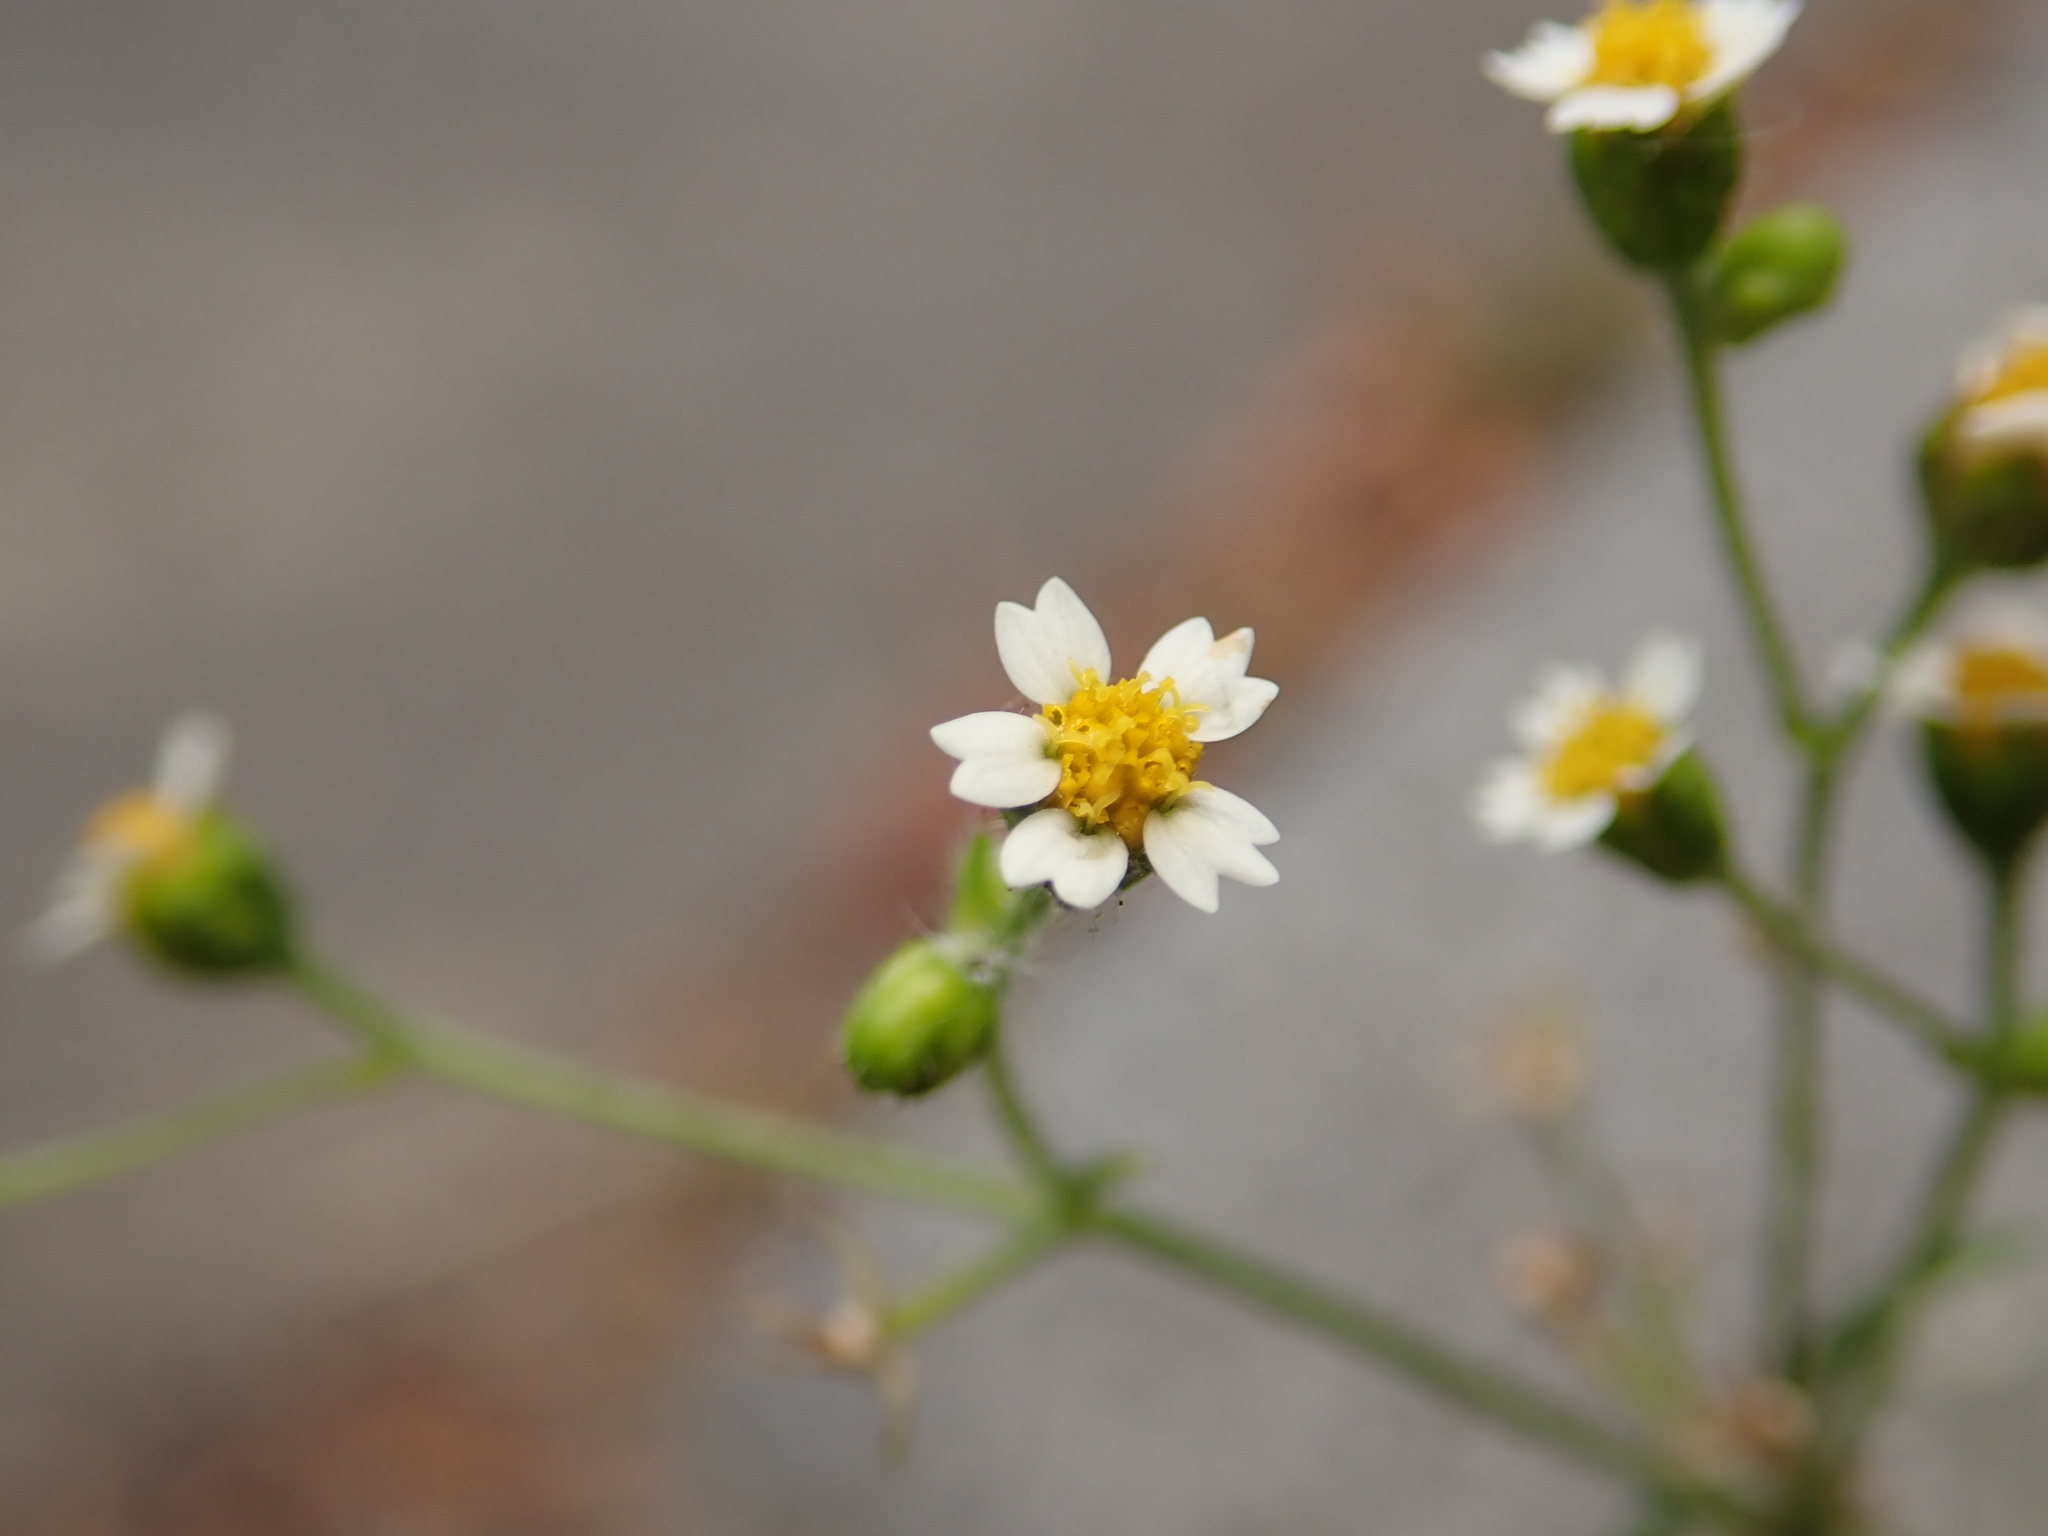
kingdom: Plantae
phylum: Tracheophyta
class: Magnoliopsida
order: Asterales
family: Asteraceae
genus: Galinsoga
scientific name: Galinsoga quadriradiata
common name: Shaggy soldier
